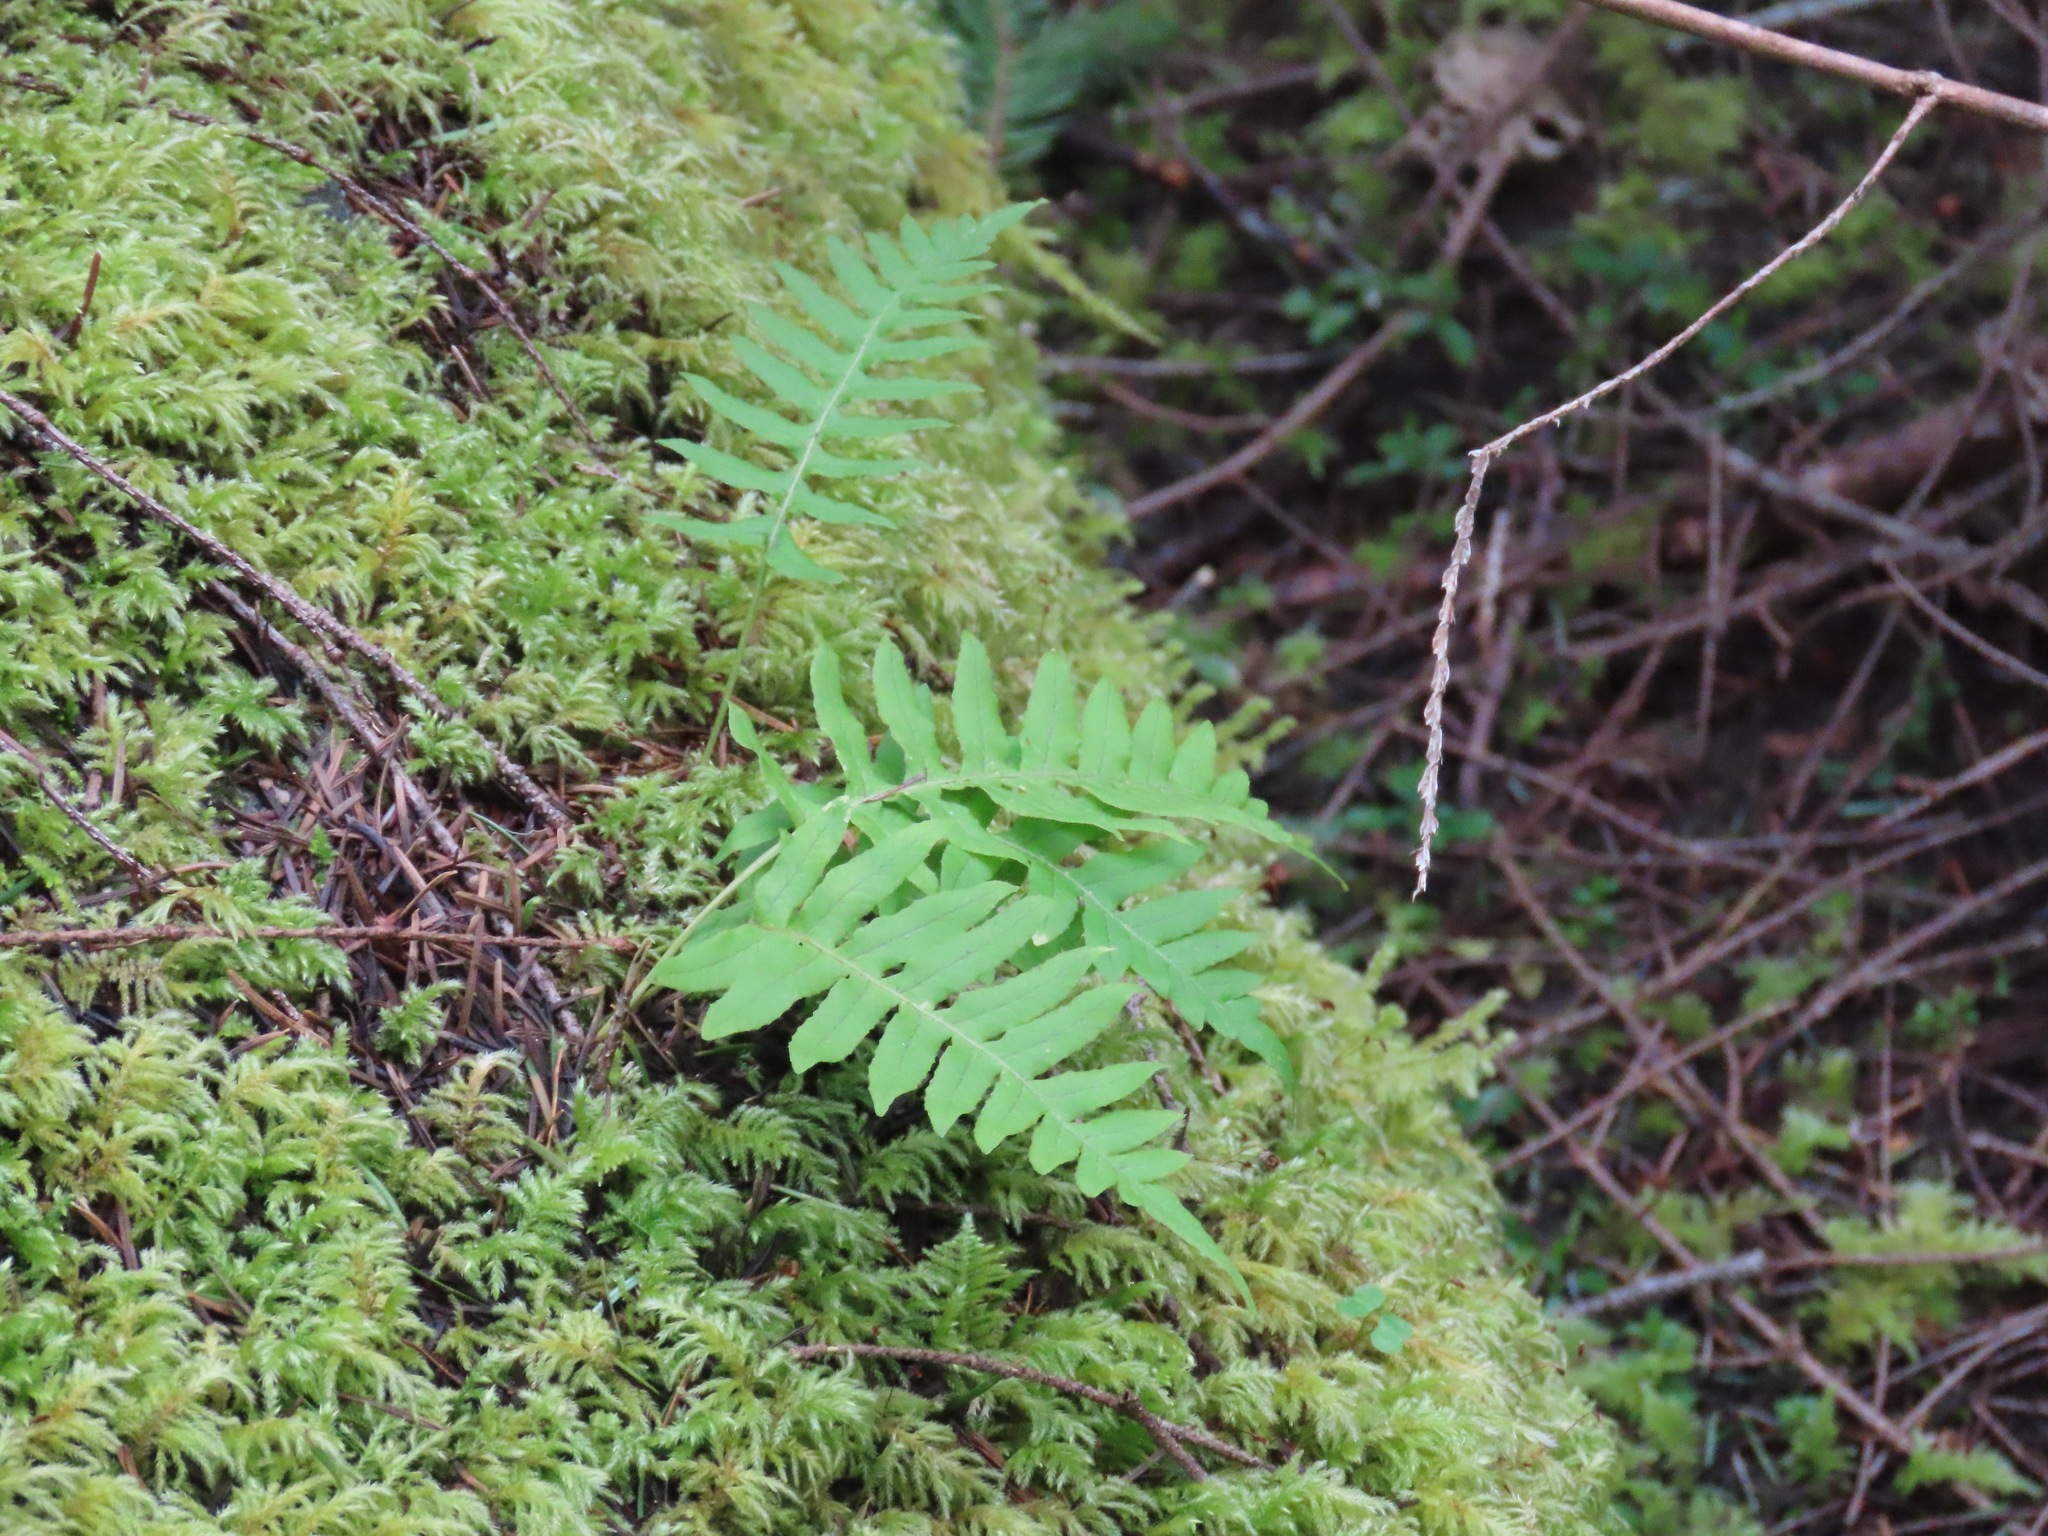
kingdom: Plantae
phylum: Tracheophyta
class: Polypodiopsida
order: Polypodiales
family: Polypodiaceae
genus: Polypodium
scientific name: Polypodium glycyrrhiza
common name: Licorice fern
